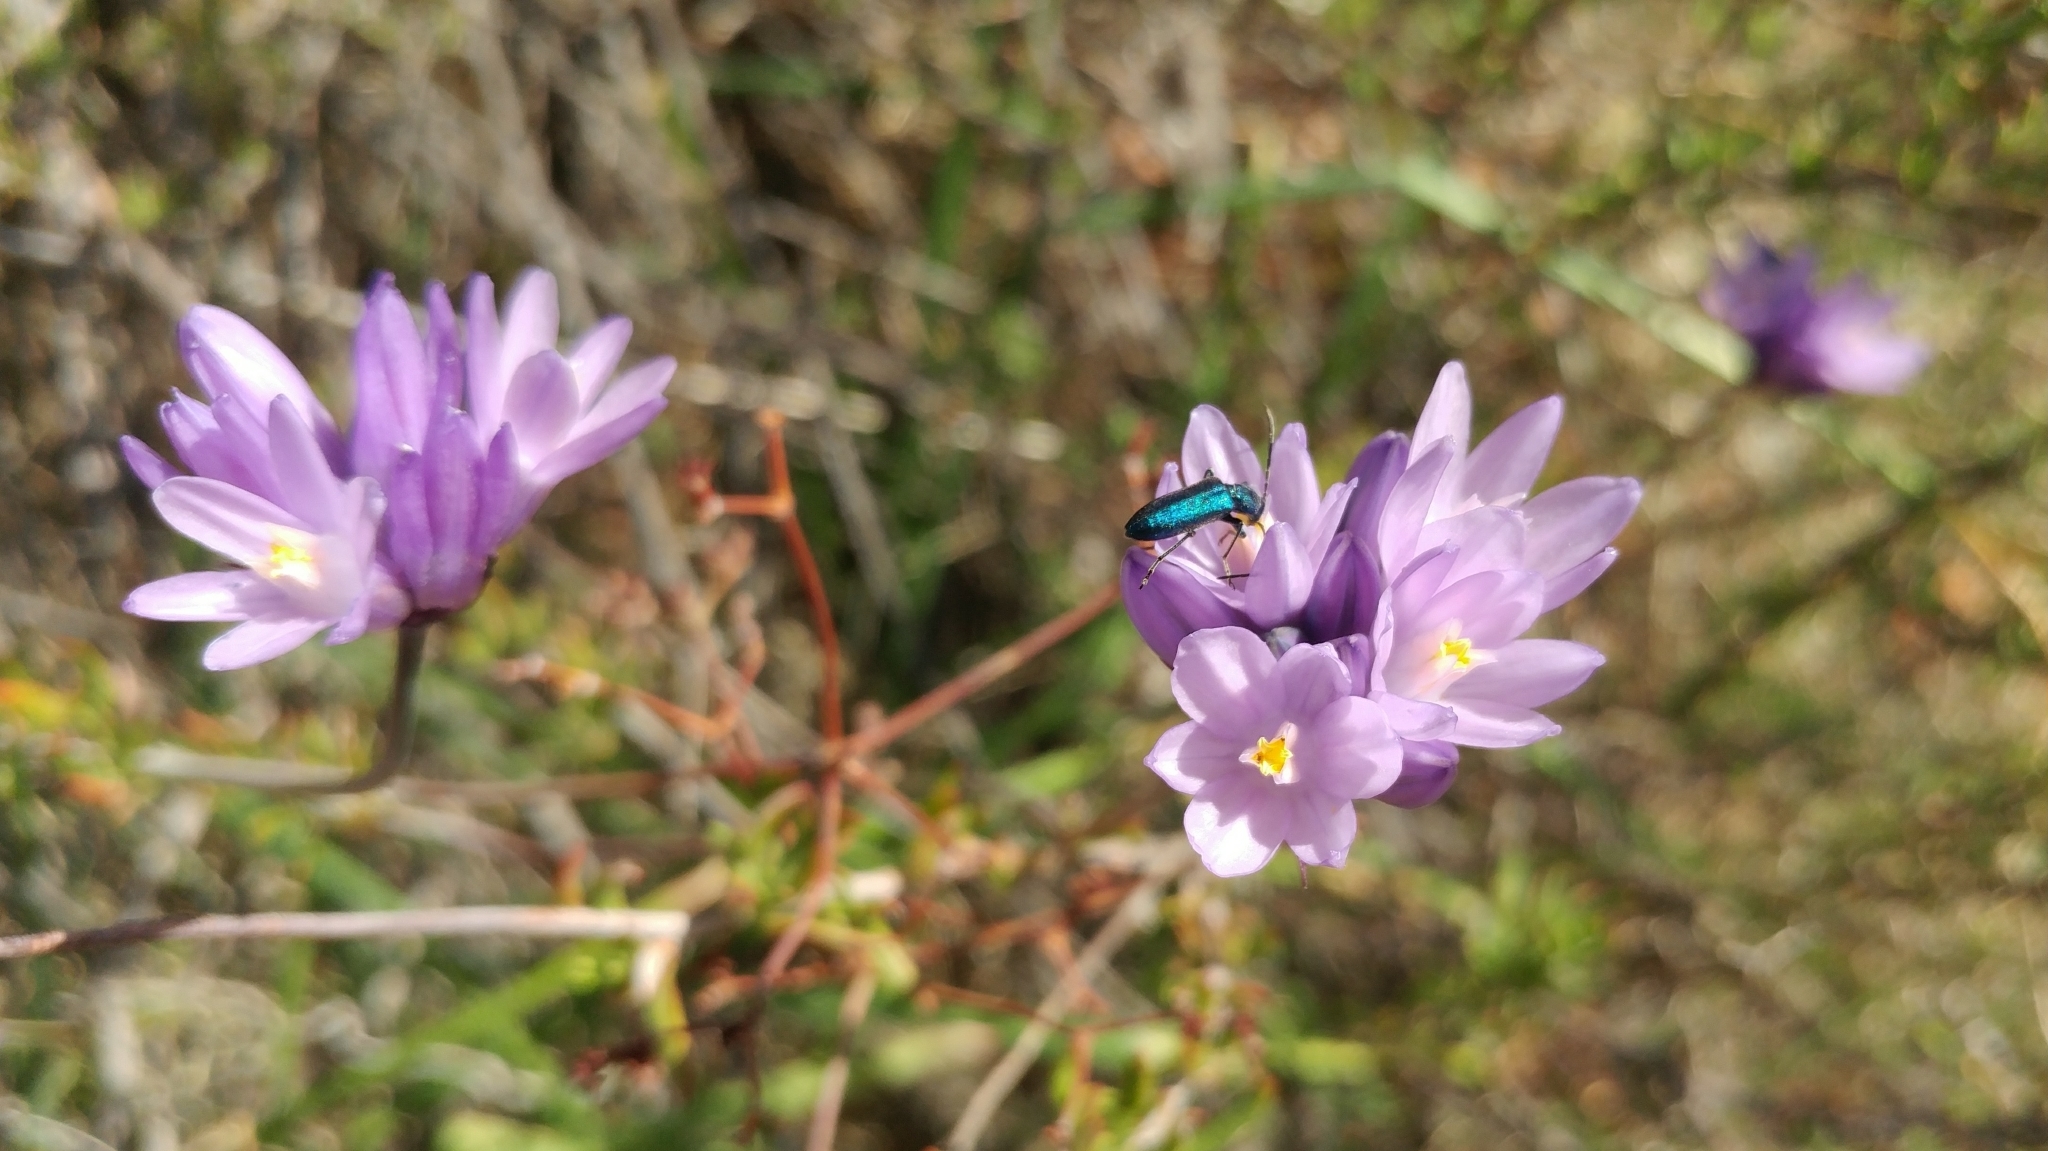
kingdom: Plantae
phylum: Tracheophyta
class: Liliopsida
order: Asparagales
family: Asparagaceae
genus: Dipterostemon
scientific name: Dipterostemon capitatus
